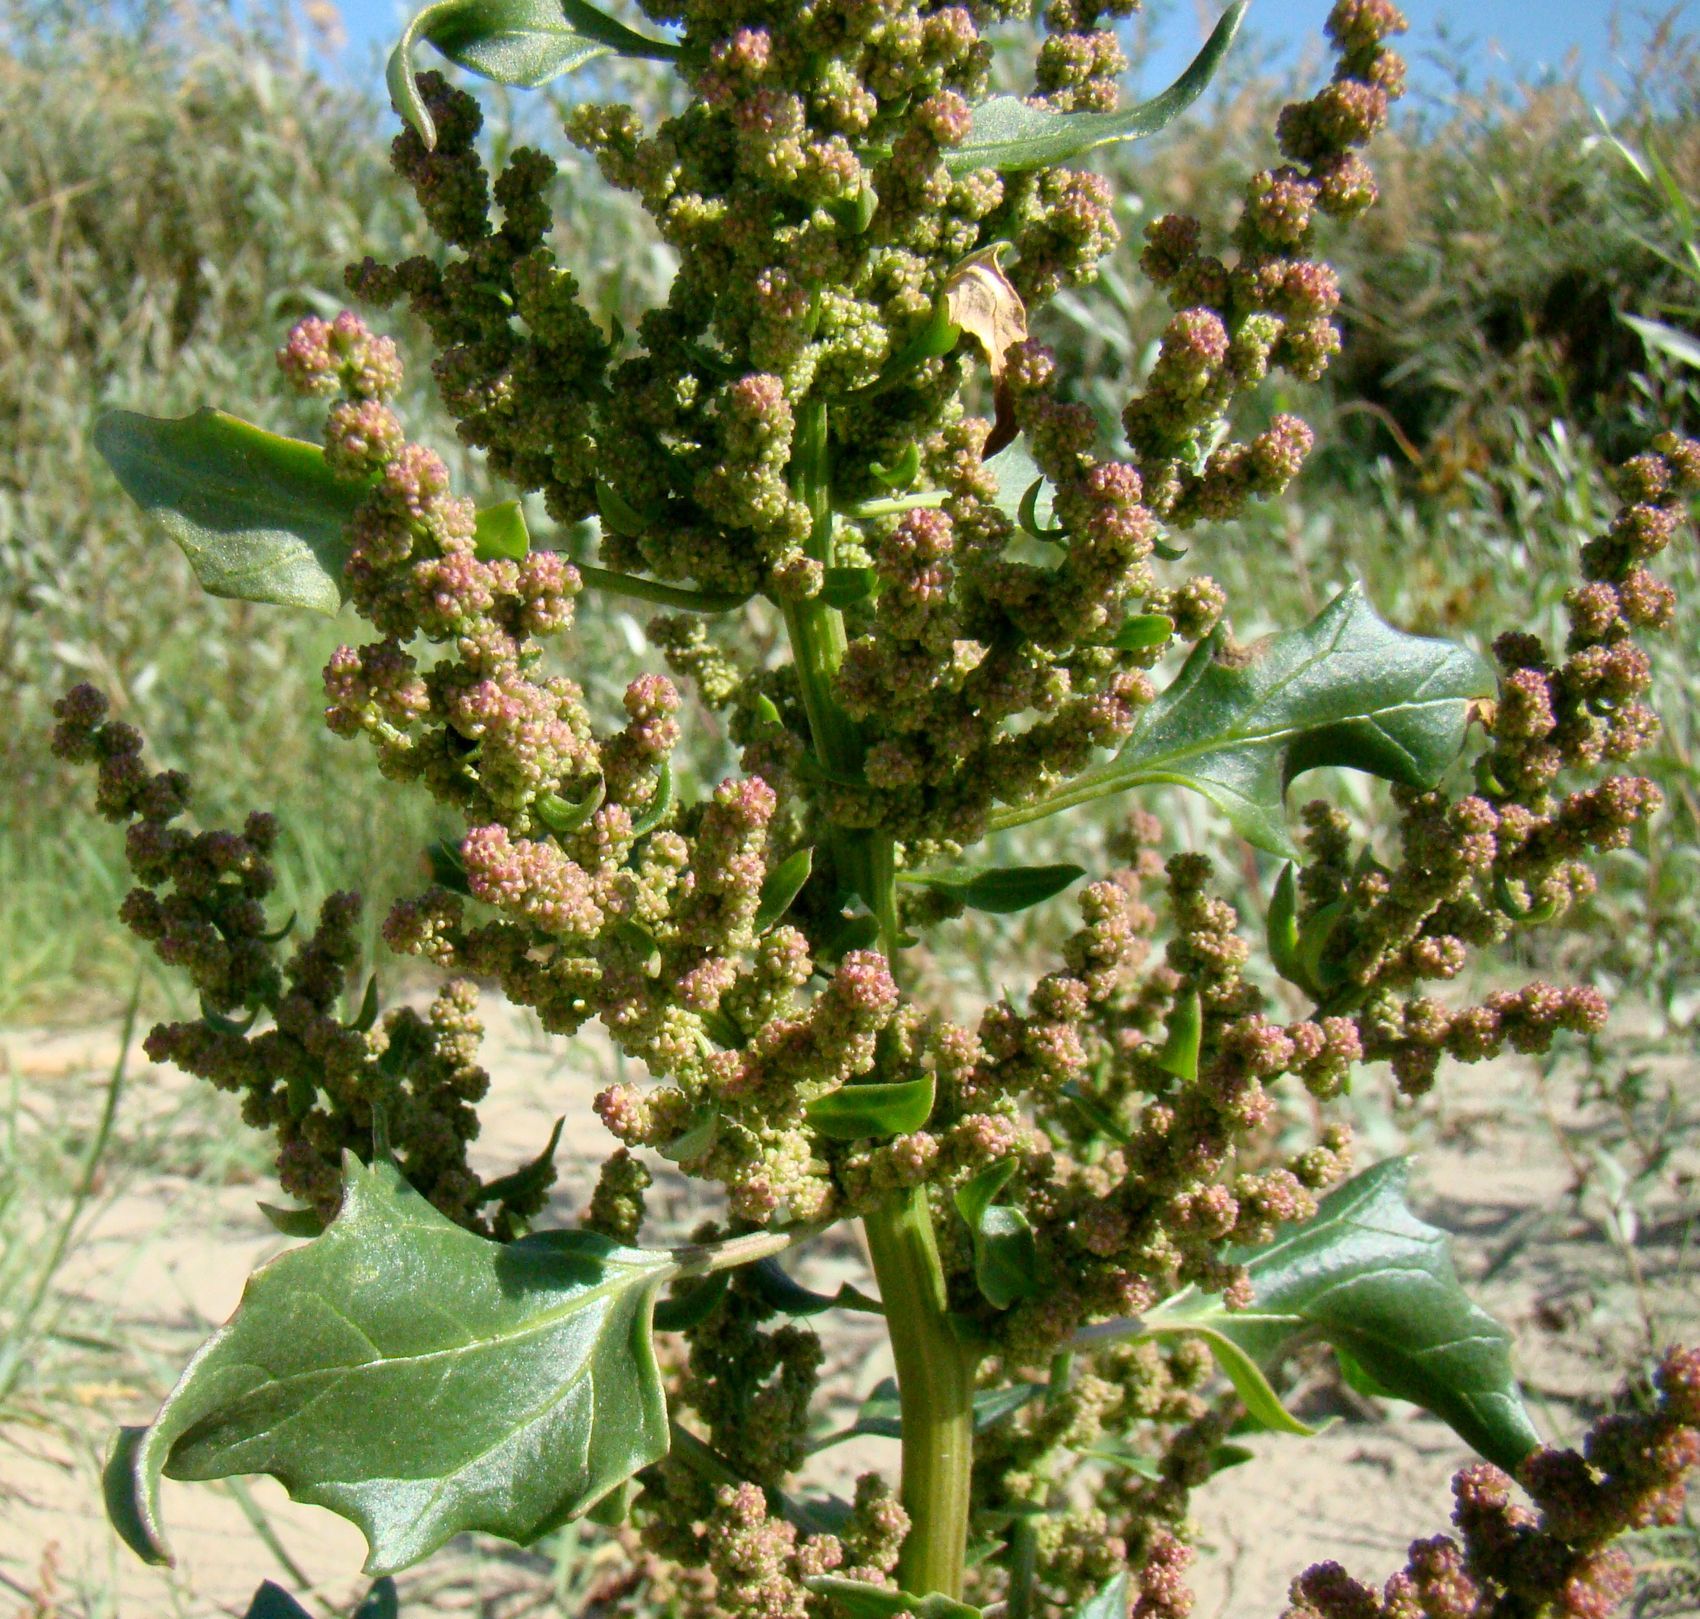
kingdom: Plantae
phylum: Tracheophyta
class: Magnoliopsida
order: Caryophyllales
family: Amaranthaceae
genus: Oxybasis
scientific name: Oxybasis chenopodioides
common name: Saltmarsh goosefoot
